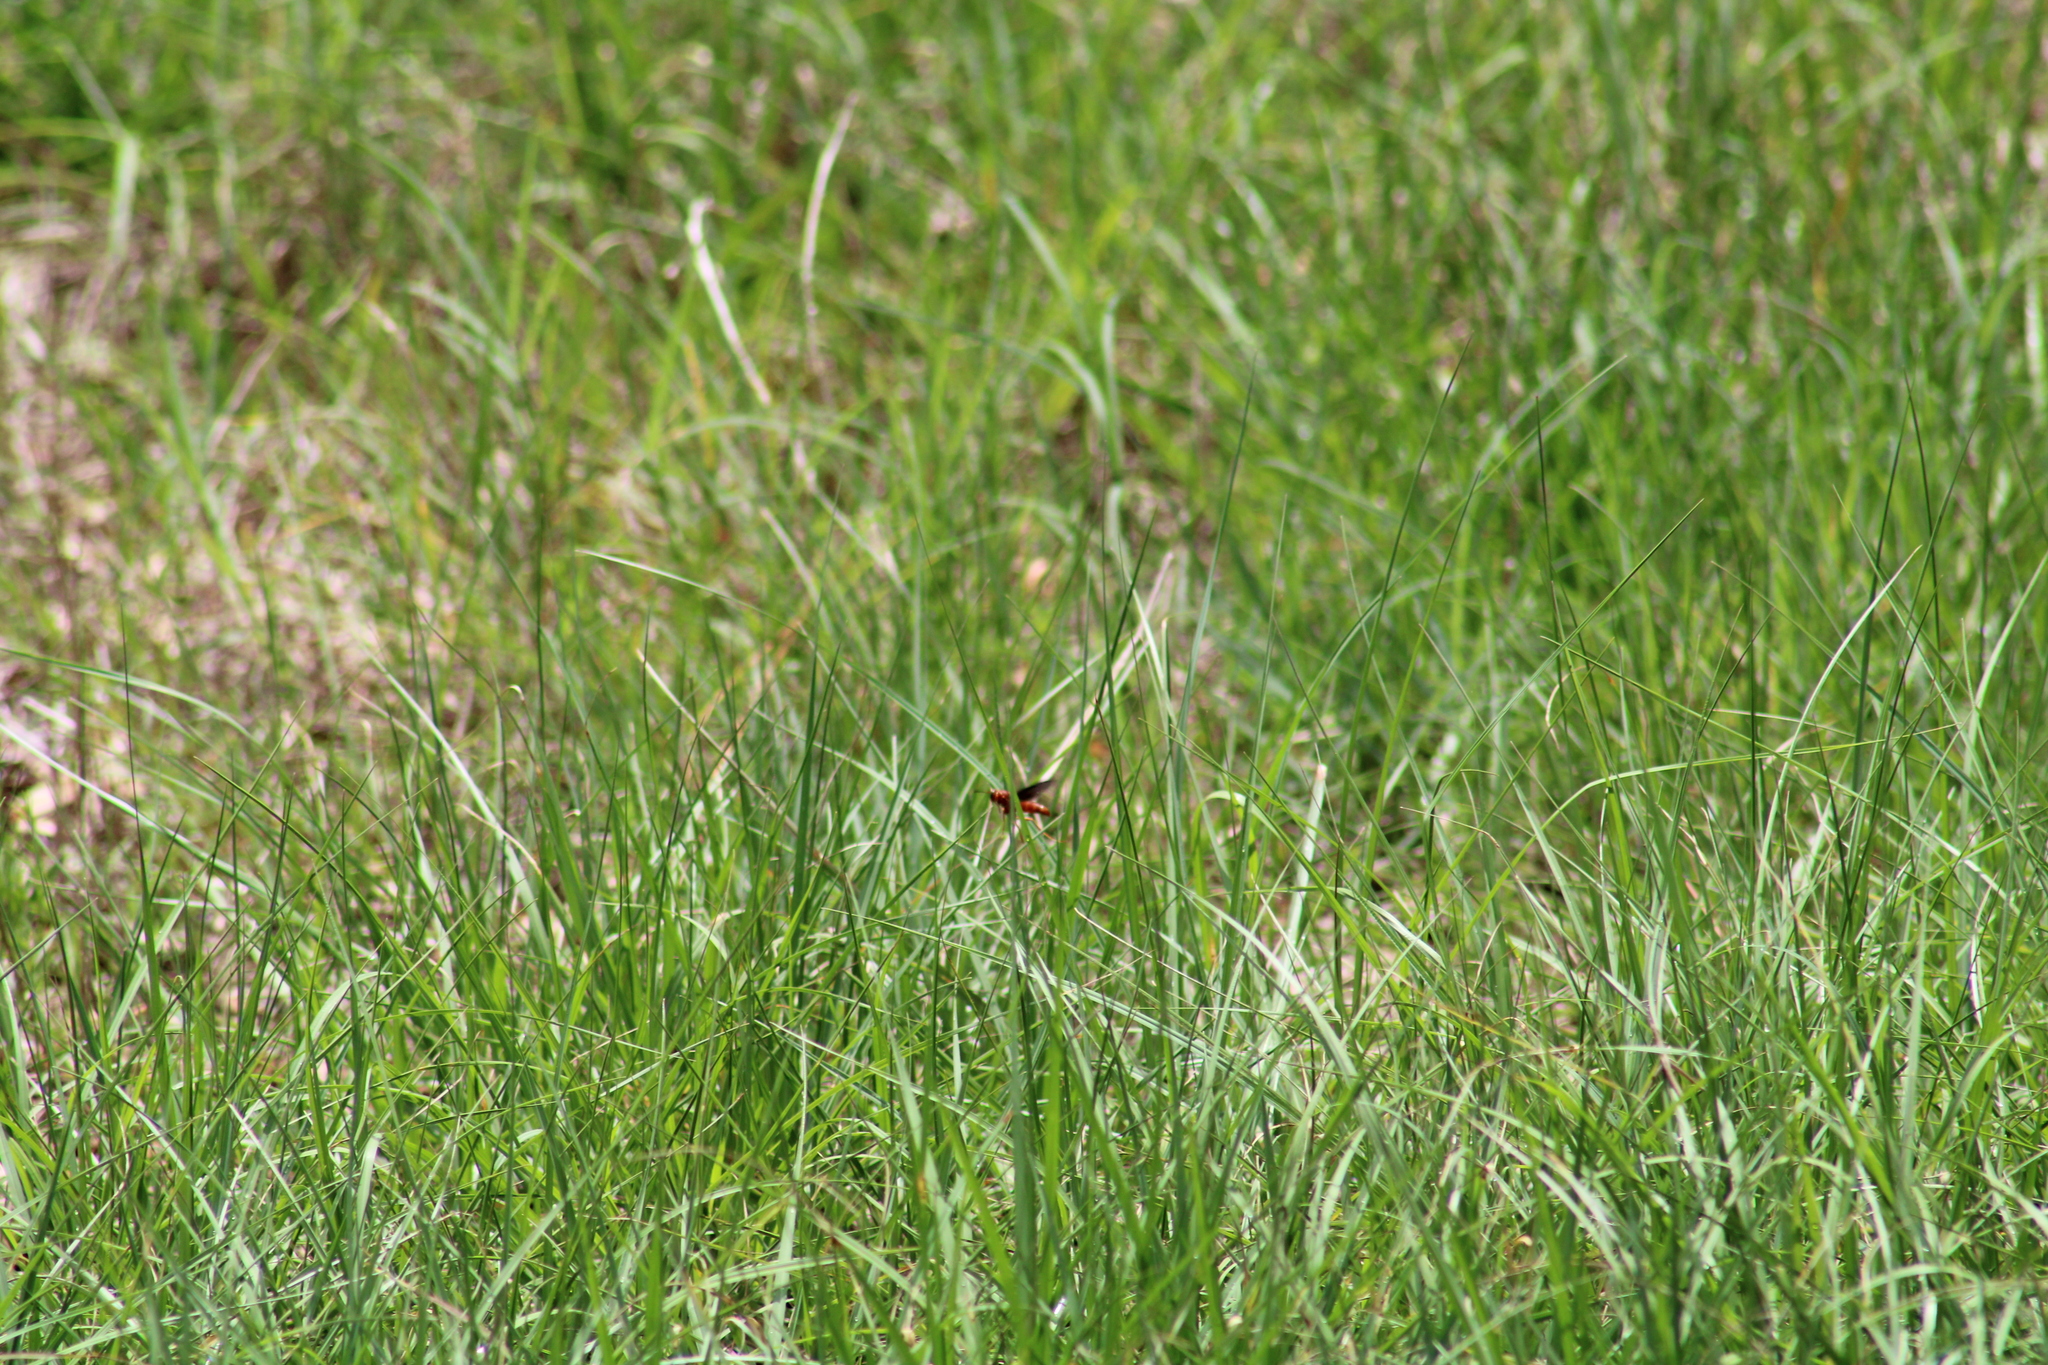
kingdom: Animalia
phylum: Arthropoda
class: Insecta
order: Hymenoptera
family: Eumenidae
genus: Polistes
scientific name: Polistes carolina
